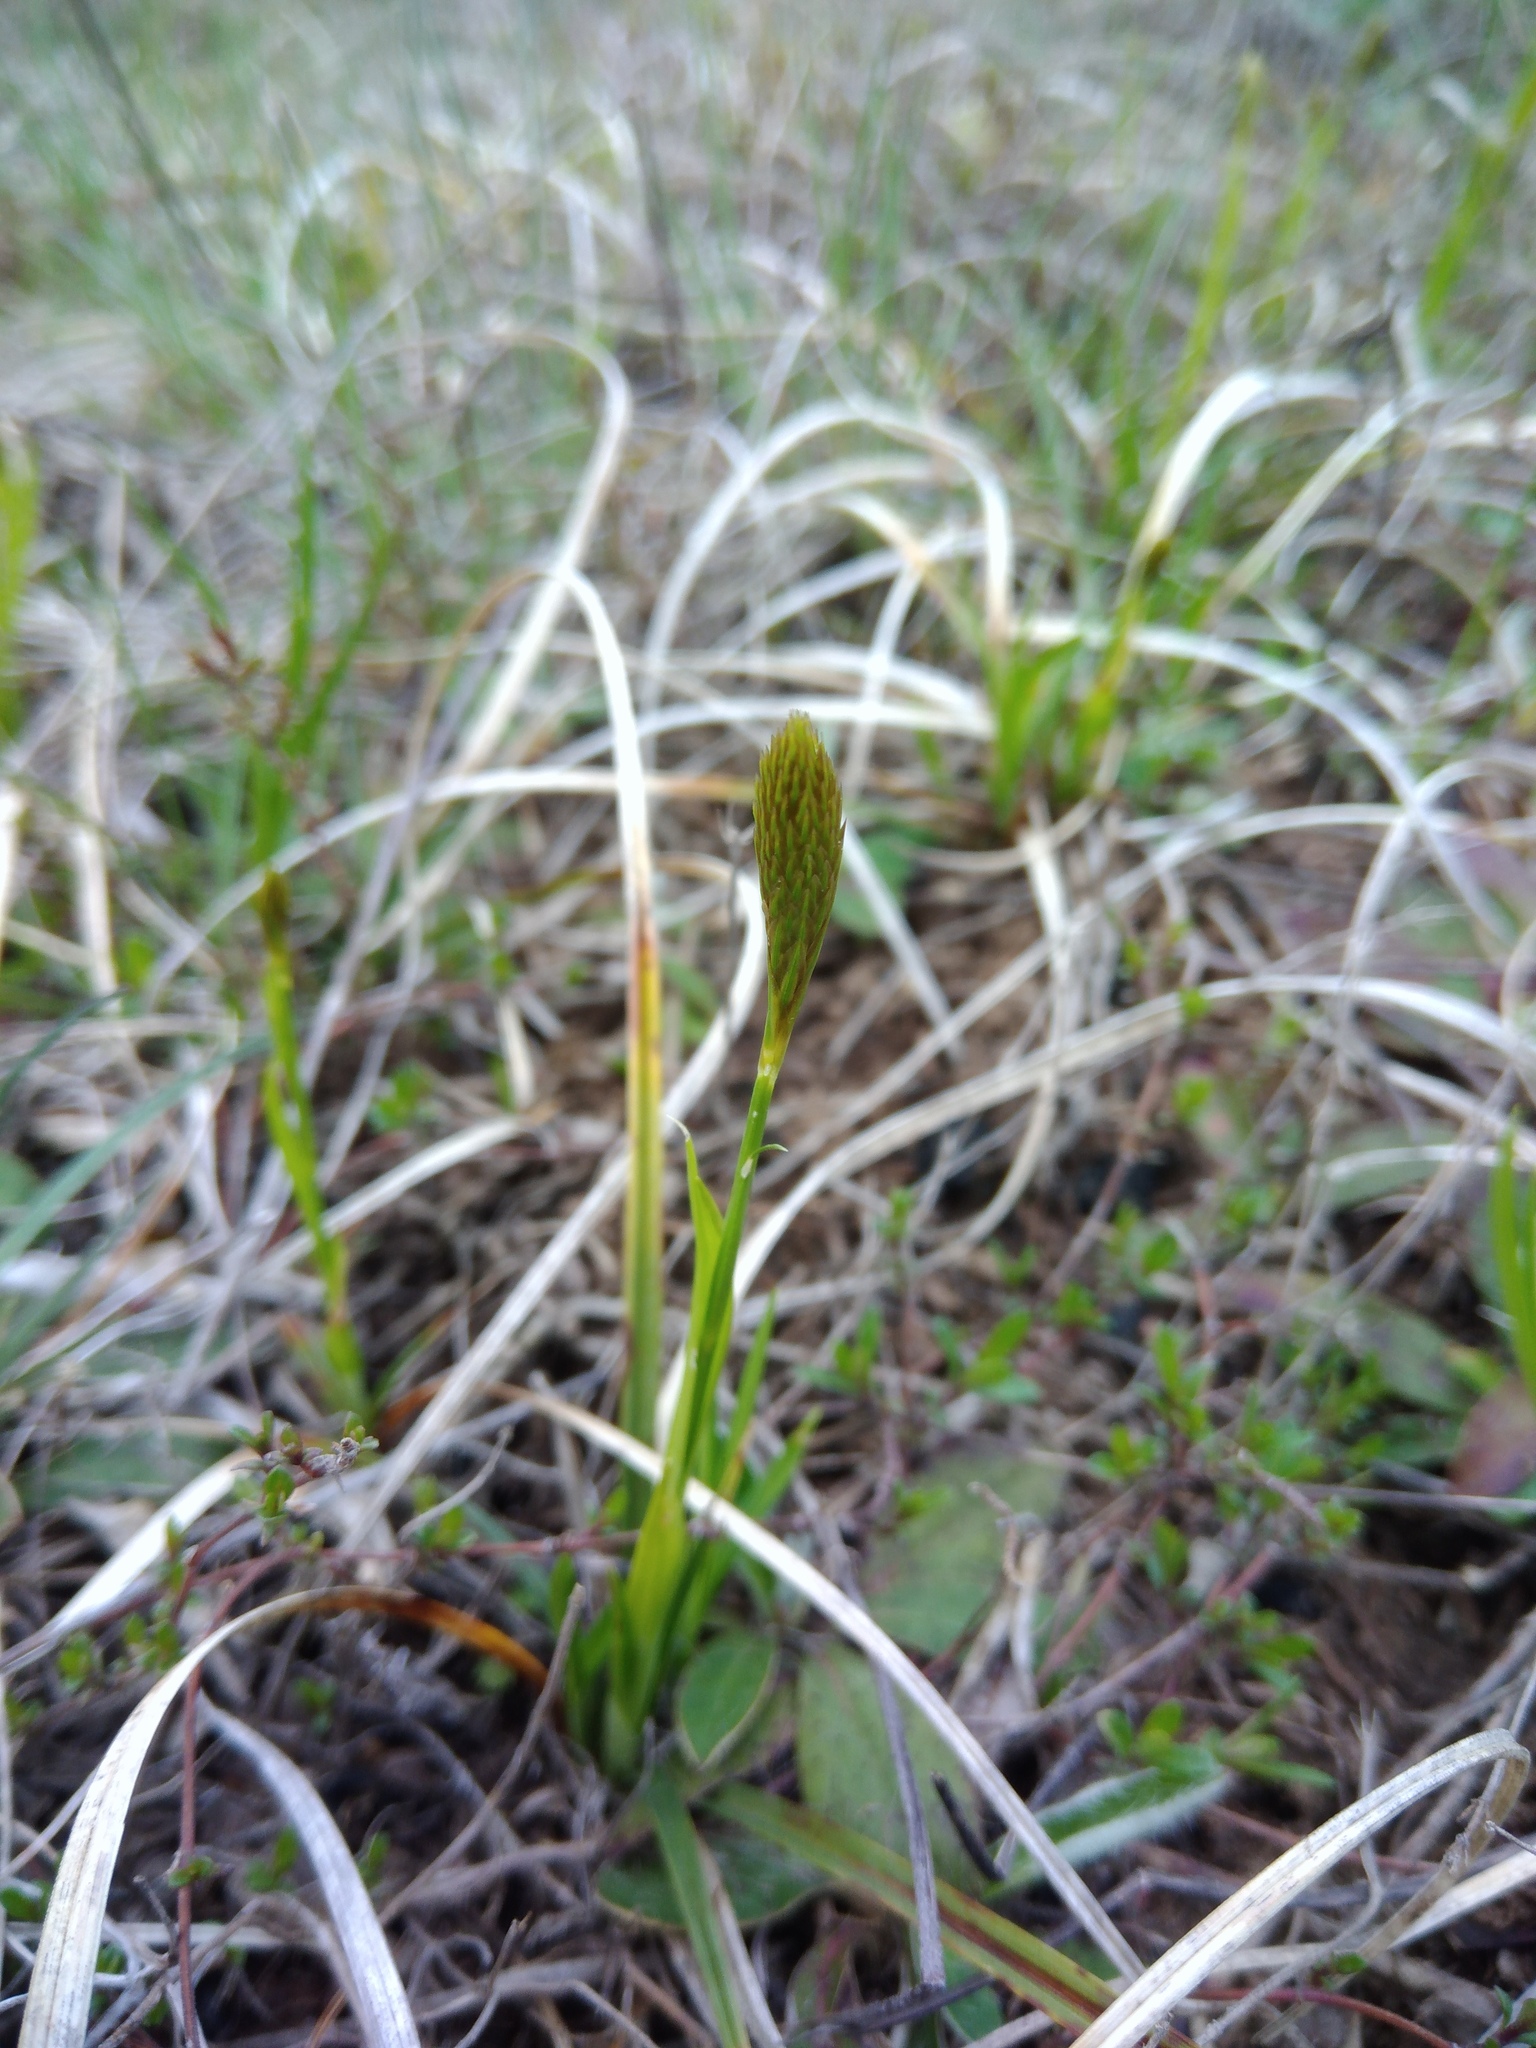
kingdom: Plantae
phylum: Tracheophyta
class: Liliopsida
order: Poales
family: Cyperaceae
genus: Carex
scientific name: Carex michelii
